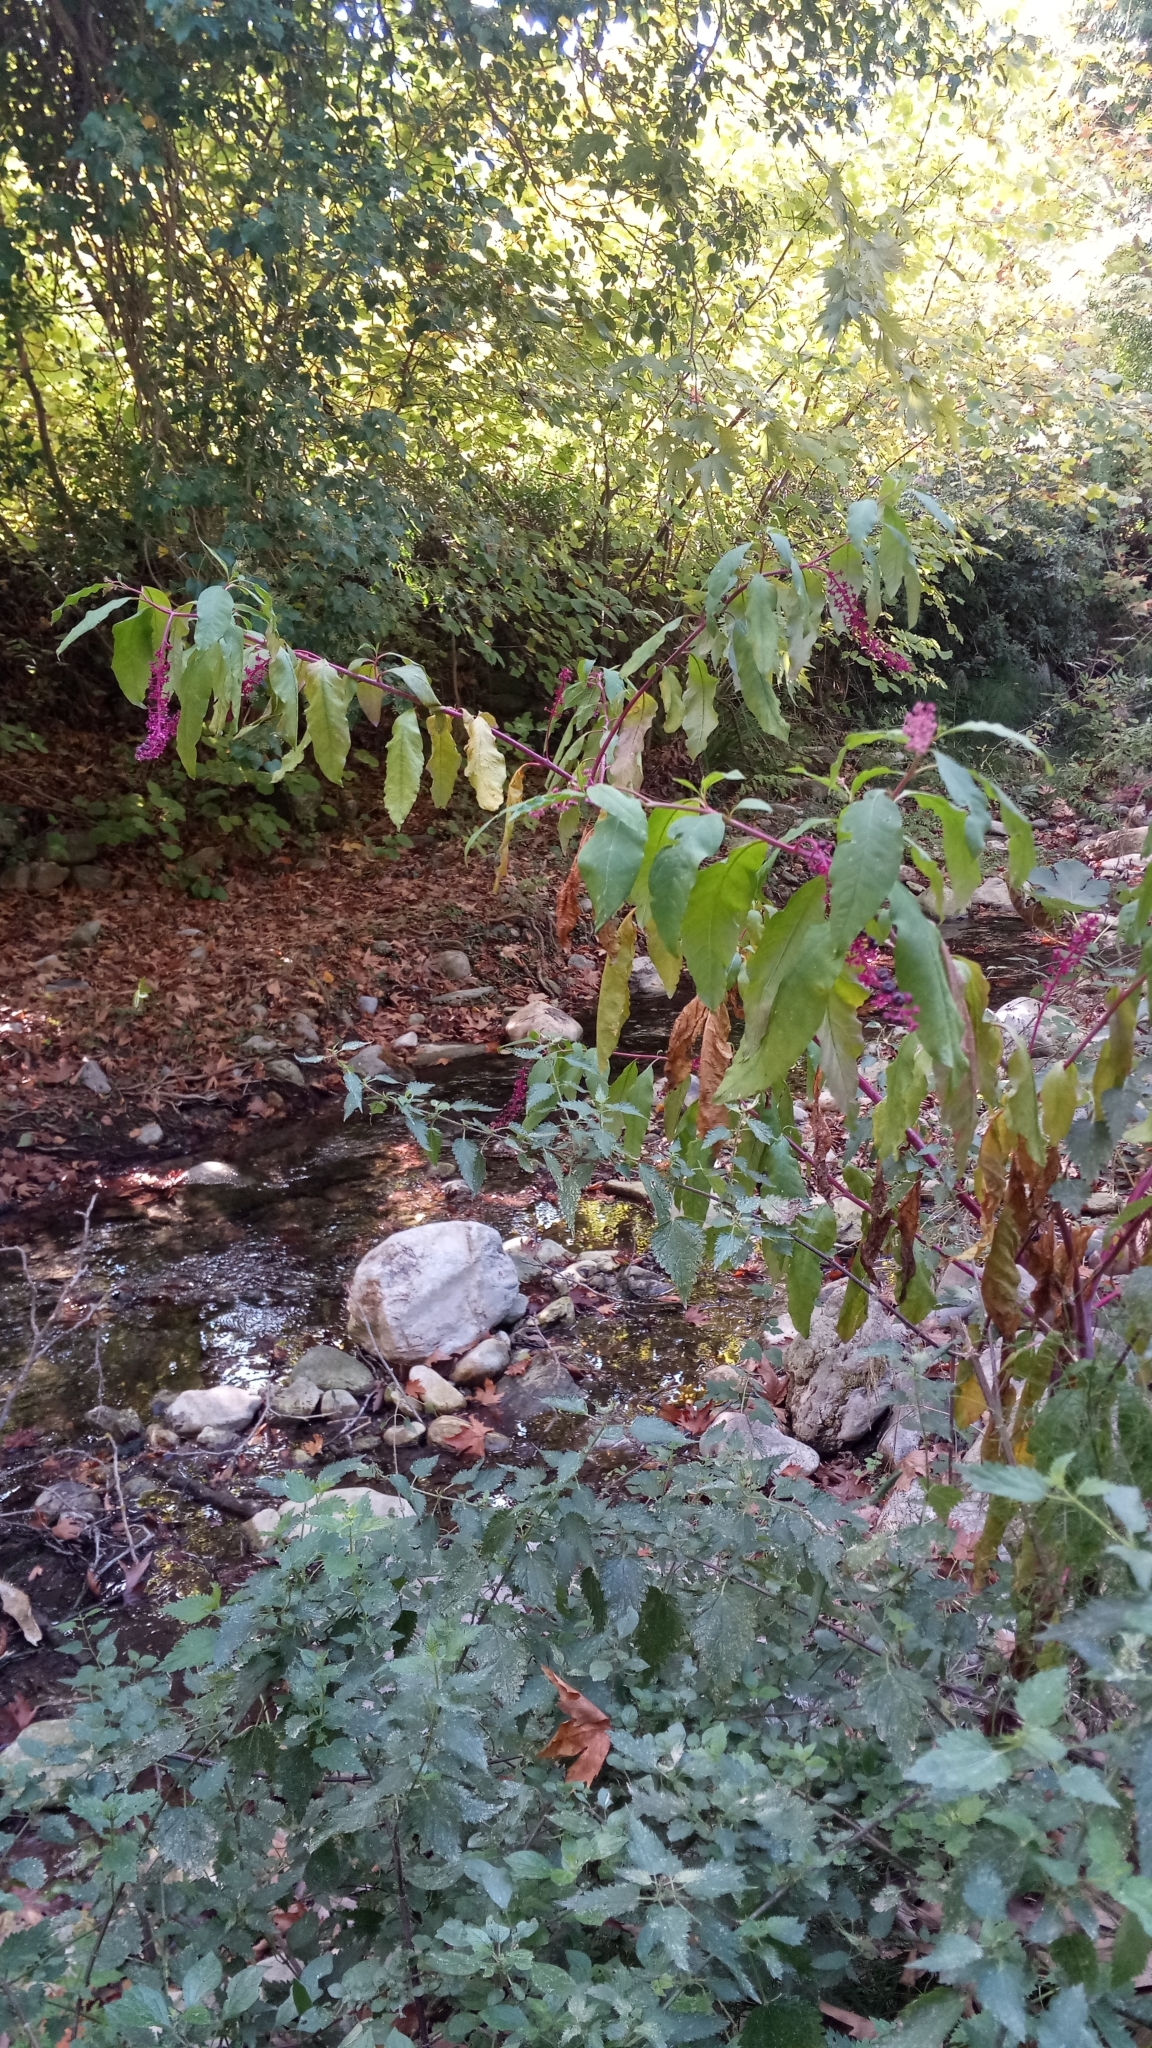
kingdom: Plantae
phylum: Tracheophyta
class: Magnoliopsida
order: Caryophyllales
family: Phytolaccaceae
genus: Phytolacca
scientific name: Phytolacca americana
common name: American pokeweed
